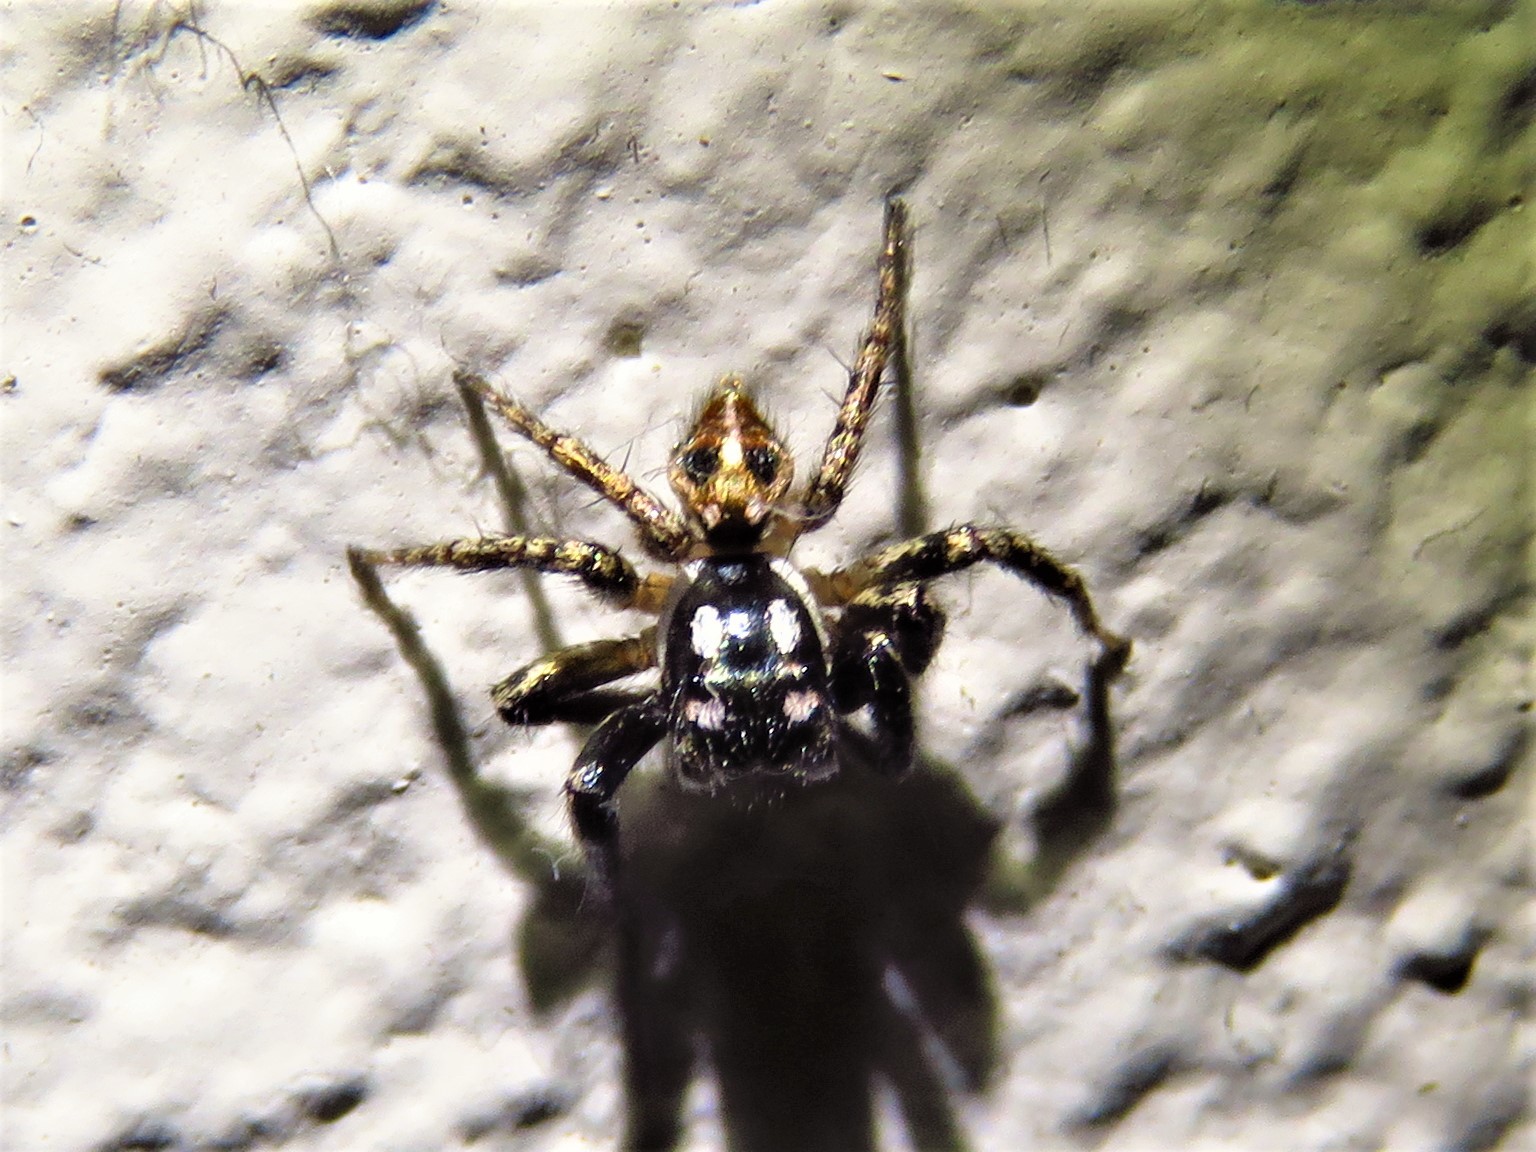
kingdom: Animalia
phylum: Arthropoda
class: Arachnida
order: Araneae
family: Salticidae
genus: Anasaitis
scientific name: Anasaitis canosa
